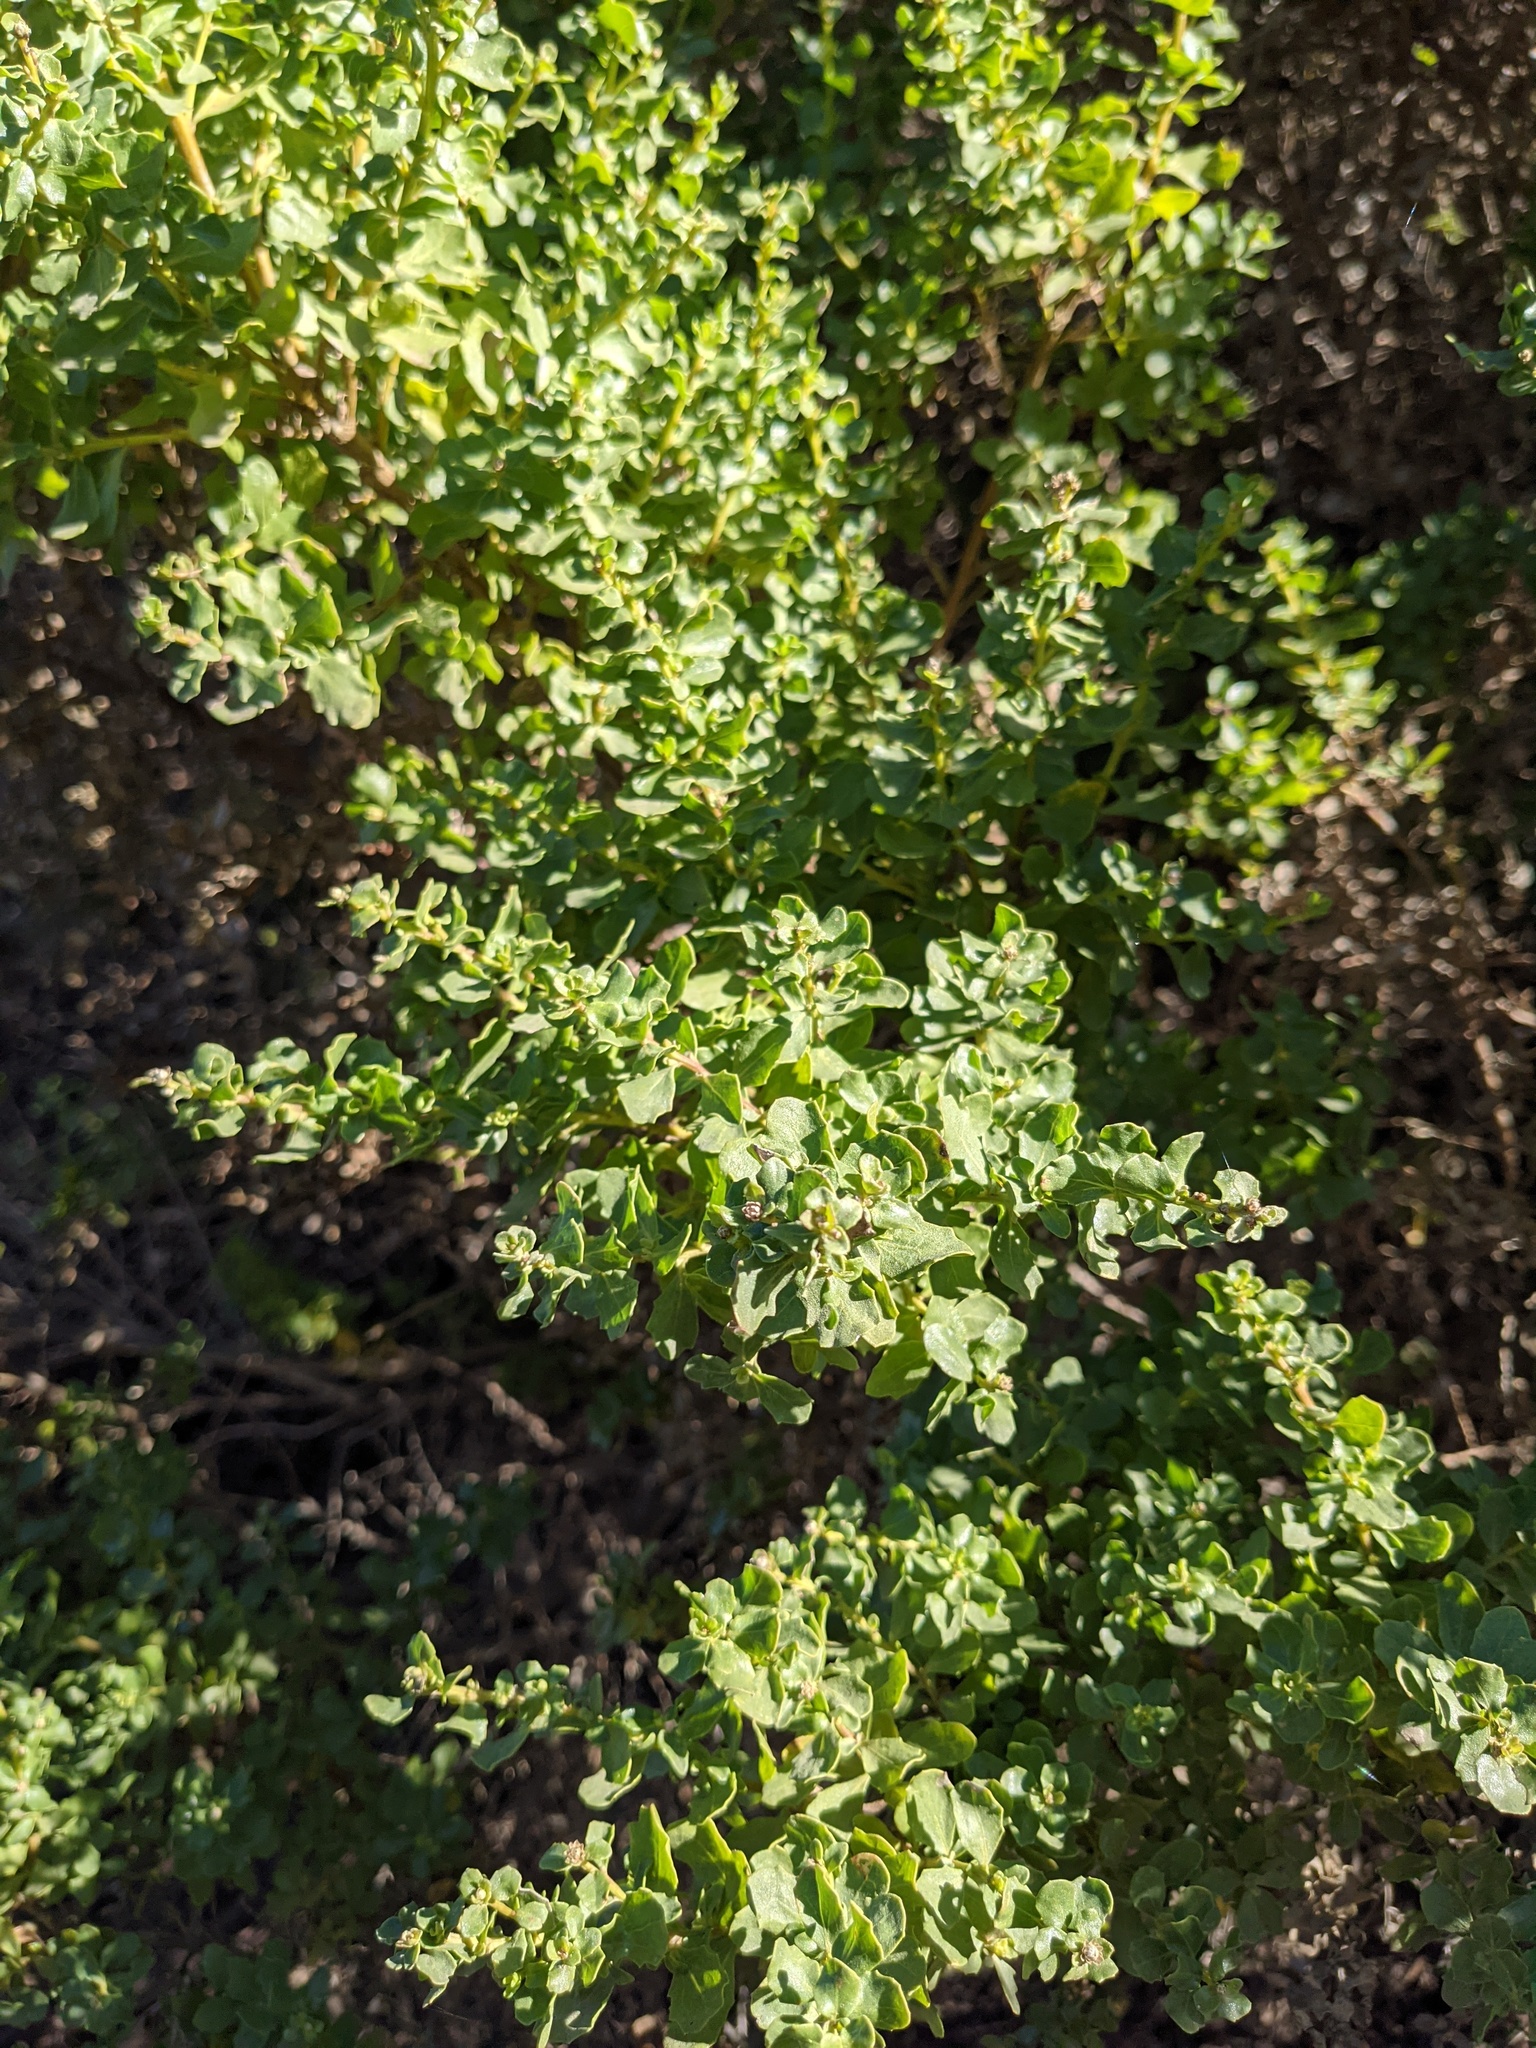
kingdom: Plantae
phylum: Tracheophyta
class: Magnoliopsida
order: Asterales
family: Asteraceae
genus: Baccharis
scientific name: Baccharis pilularis
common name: Coyotebrush
